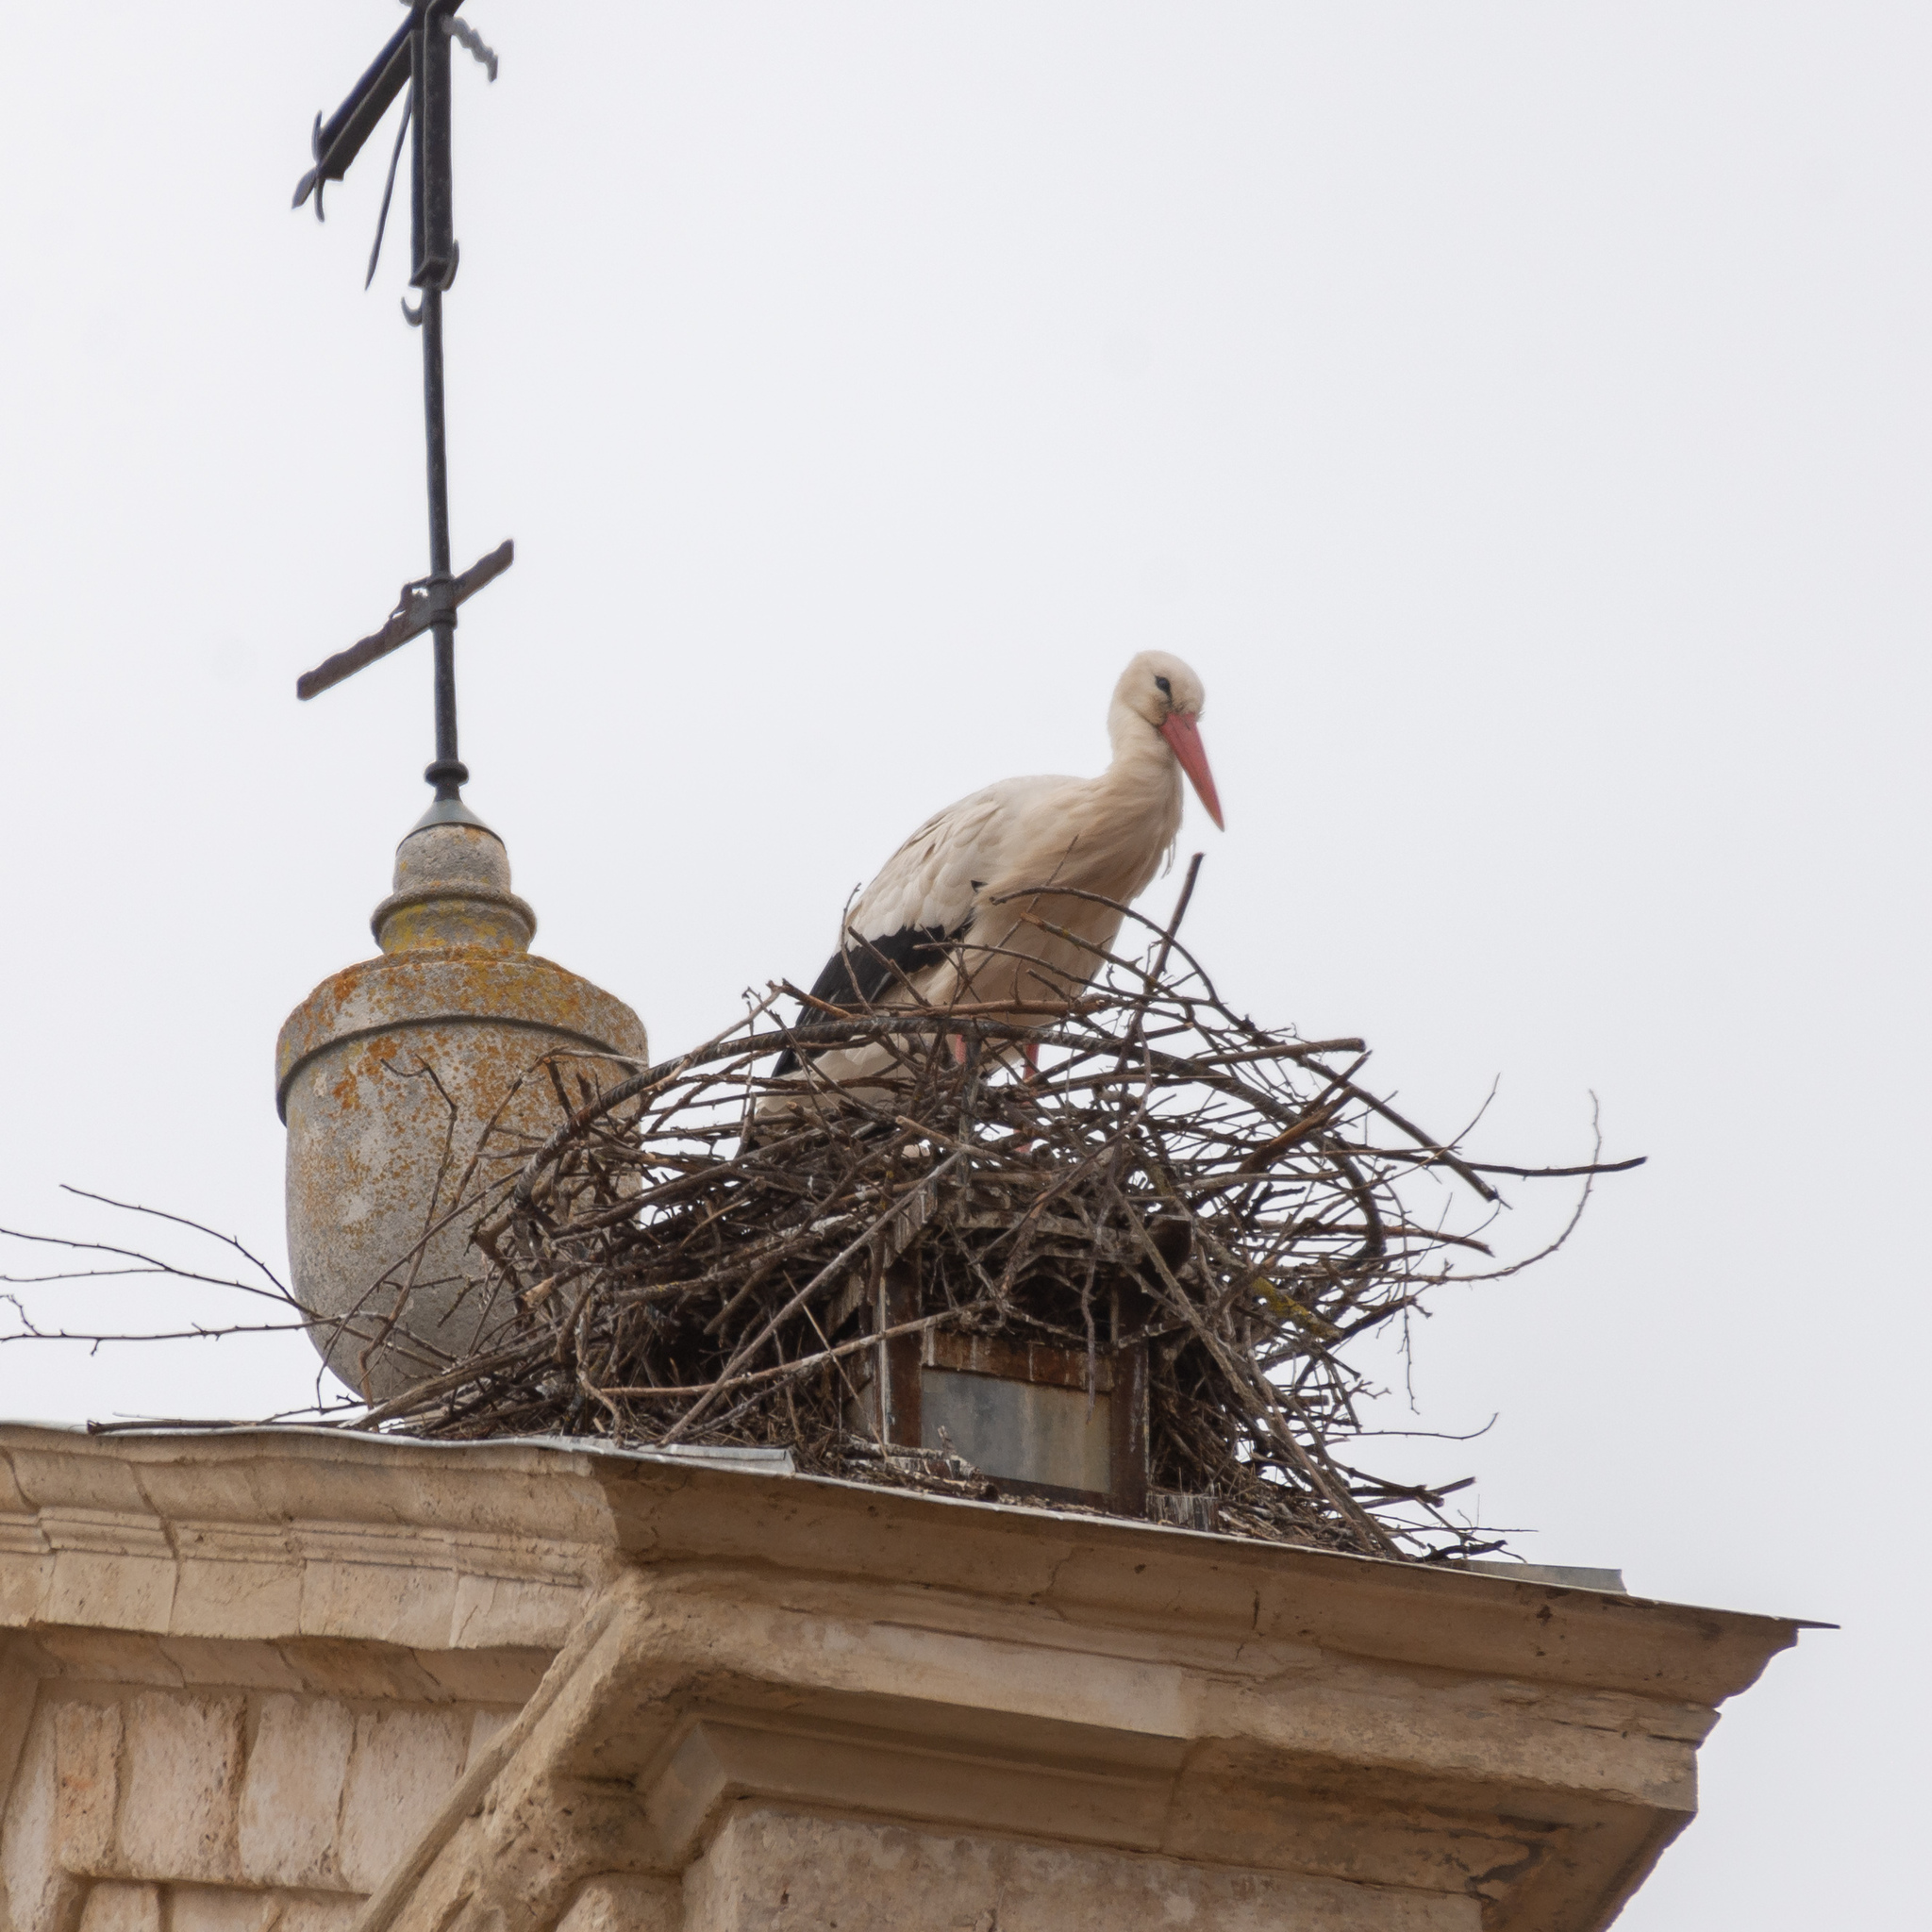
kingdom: Animalia
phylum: Chordata
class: Aves
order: Ciconiiformes
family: Ciconiidae
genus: Ciconia
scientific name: Ciconia ciconia
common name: White stork
